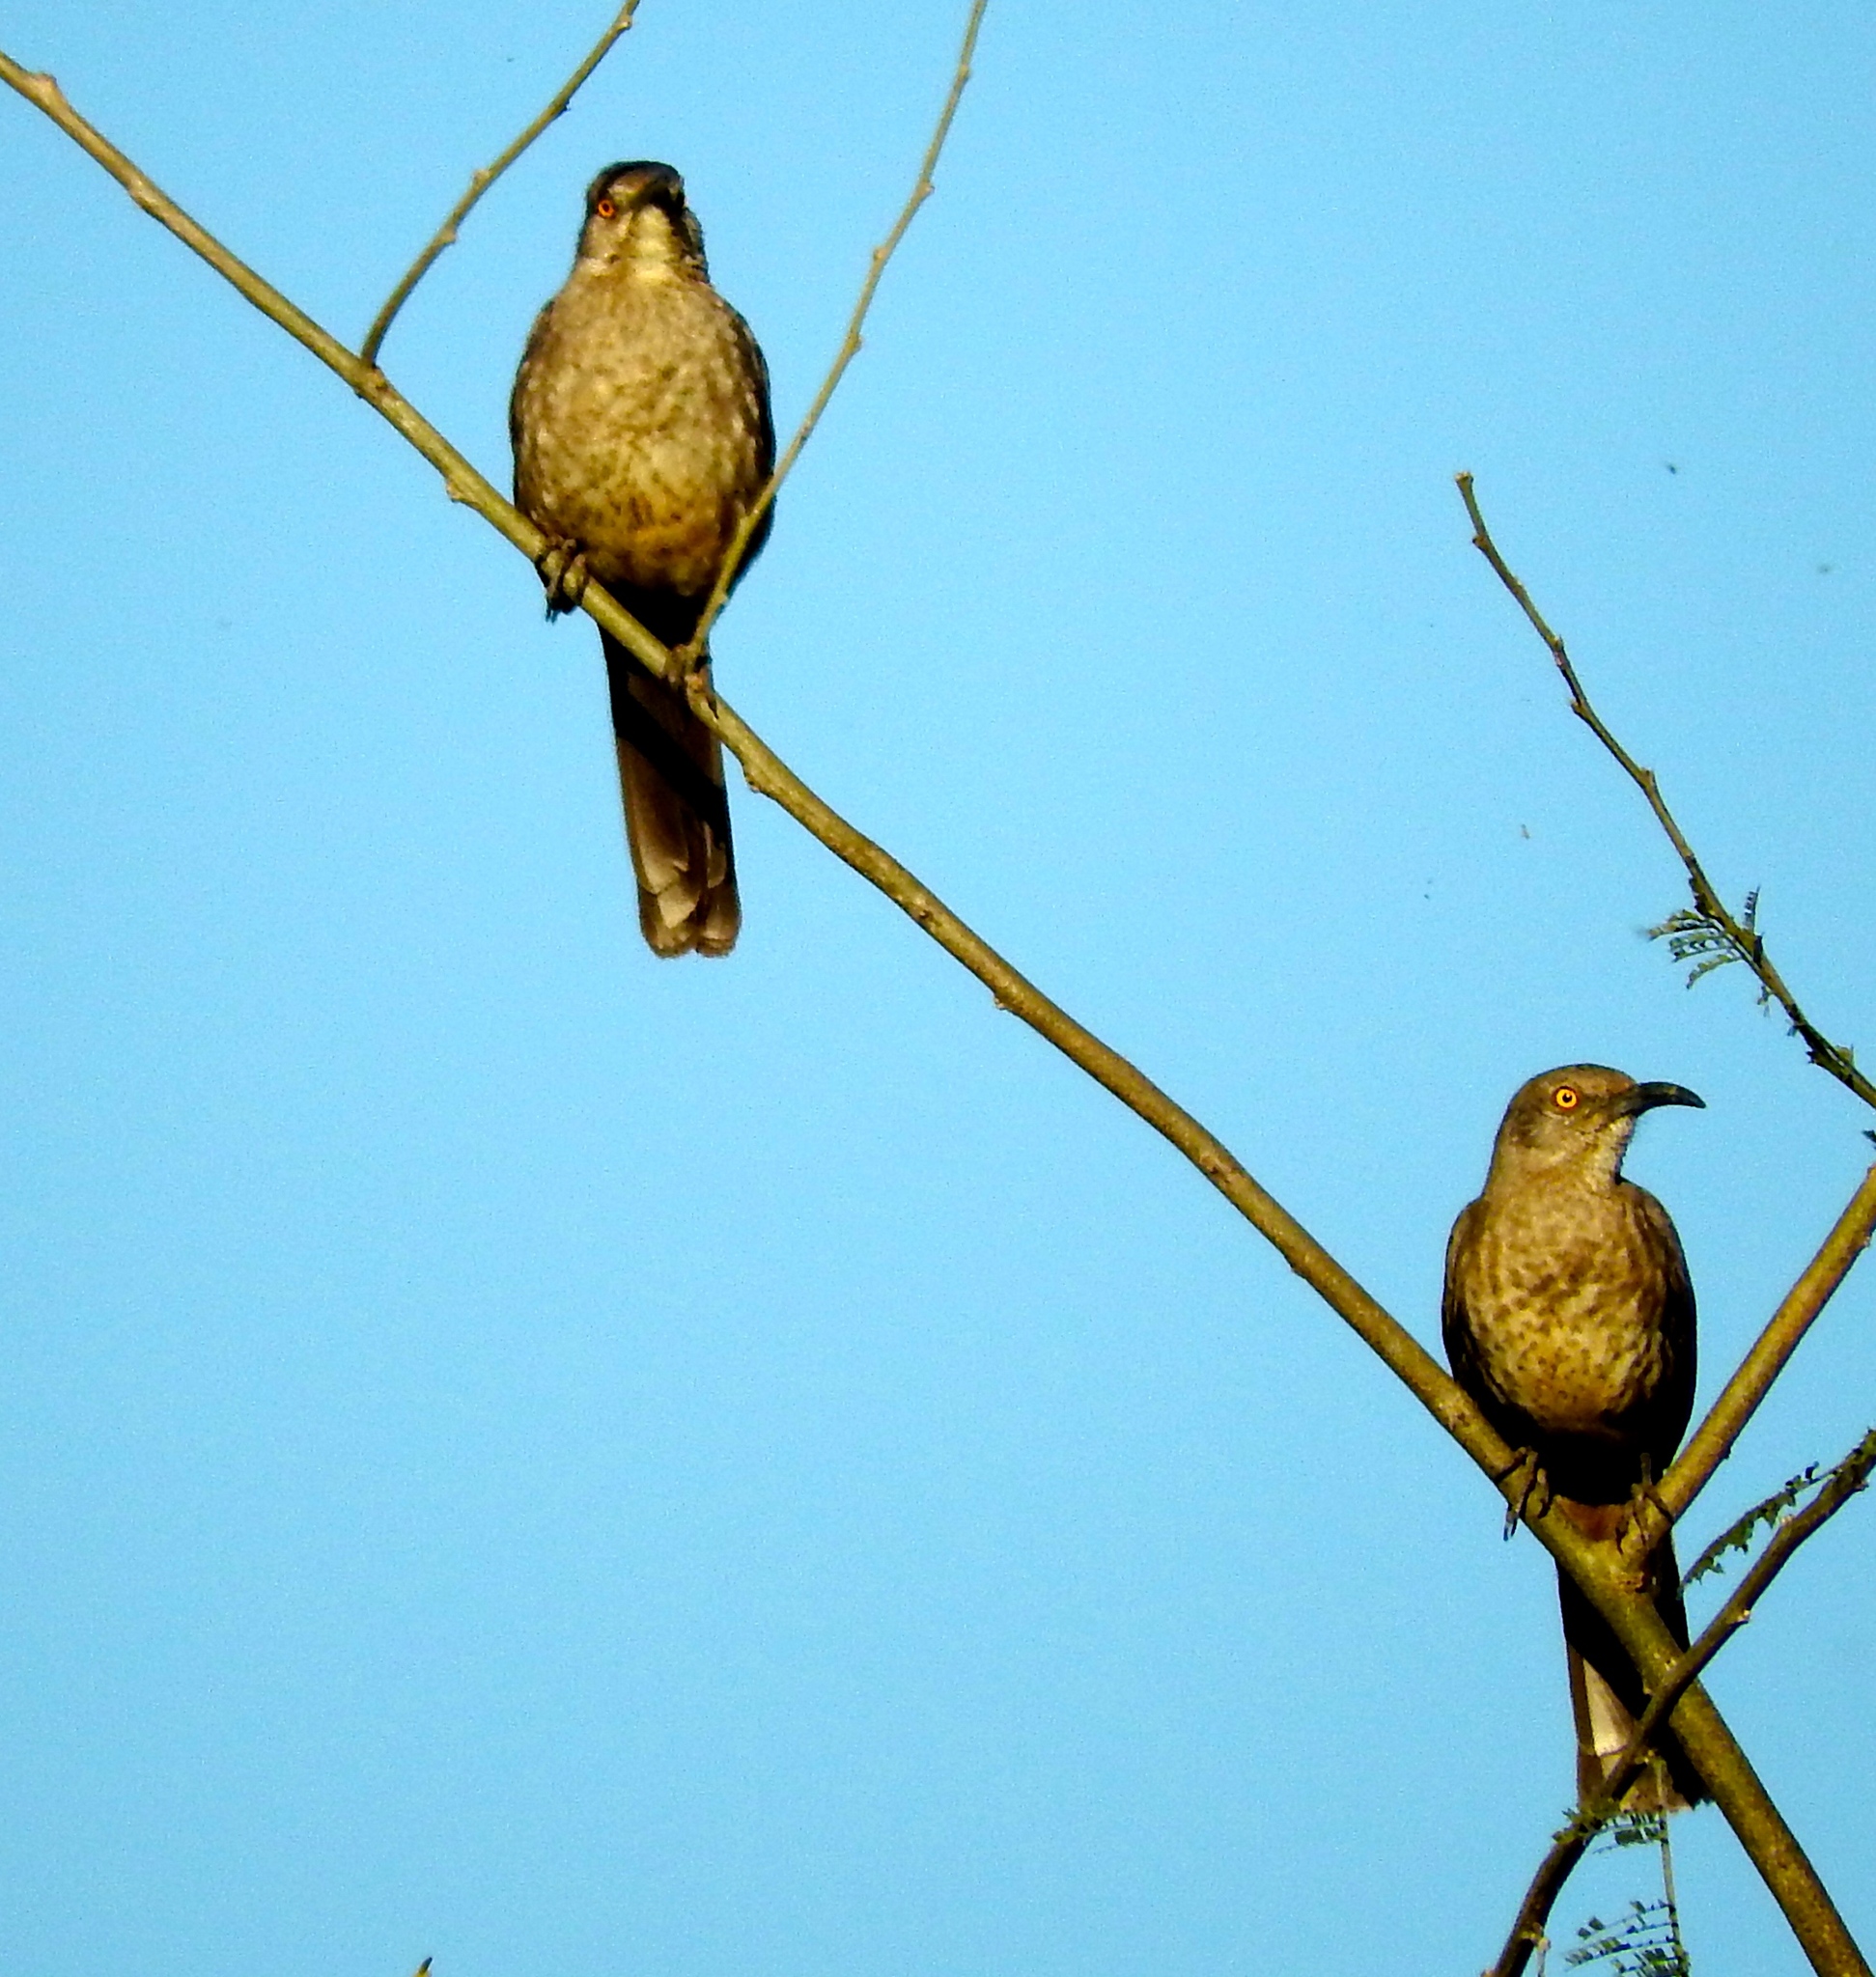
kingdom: Animalia
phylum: Chordata
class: Aves
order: Passeriformes
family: Mimidae
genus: Toxostoma
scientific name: Toxostoma curvirostre
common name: Curve-billed thrasher
